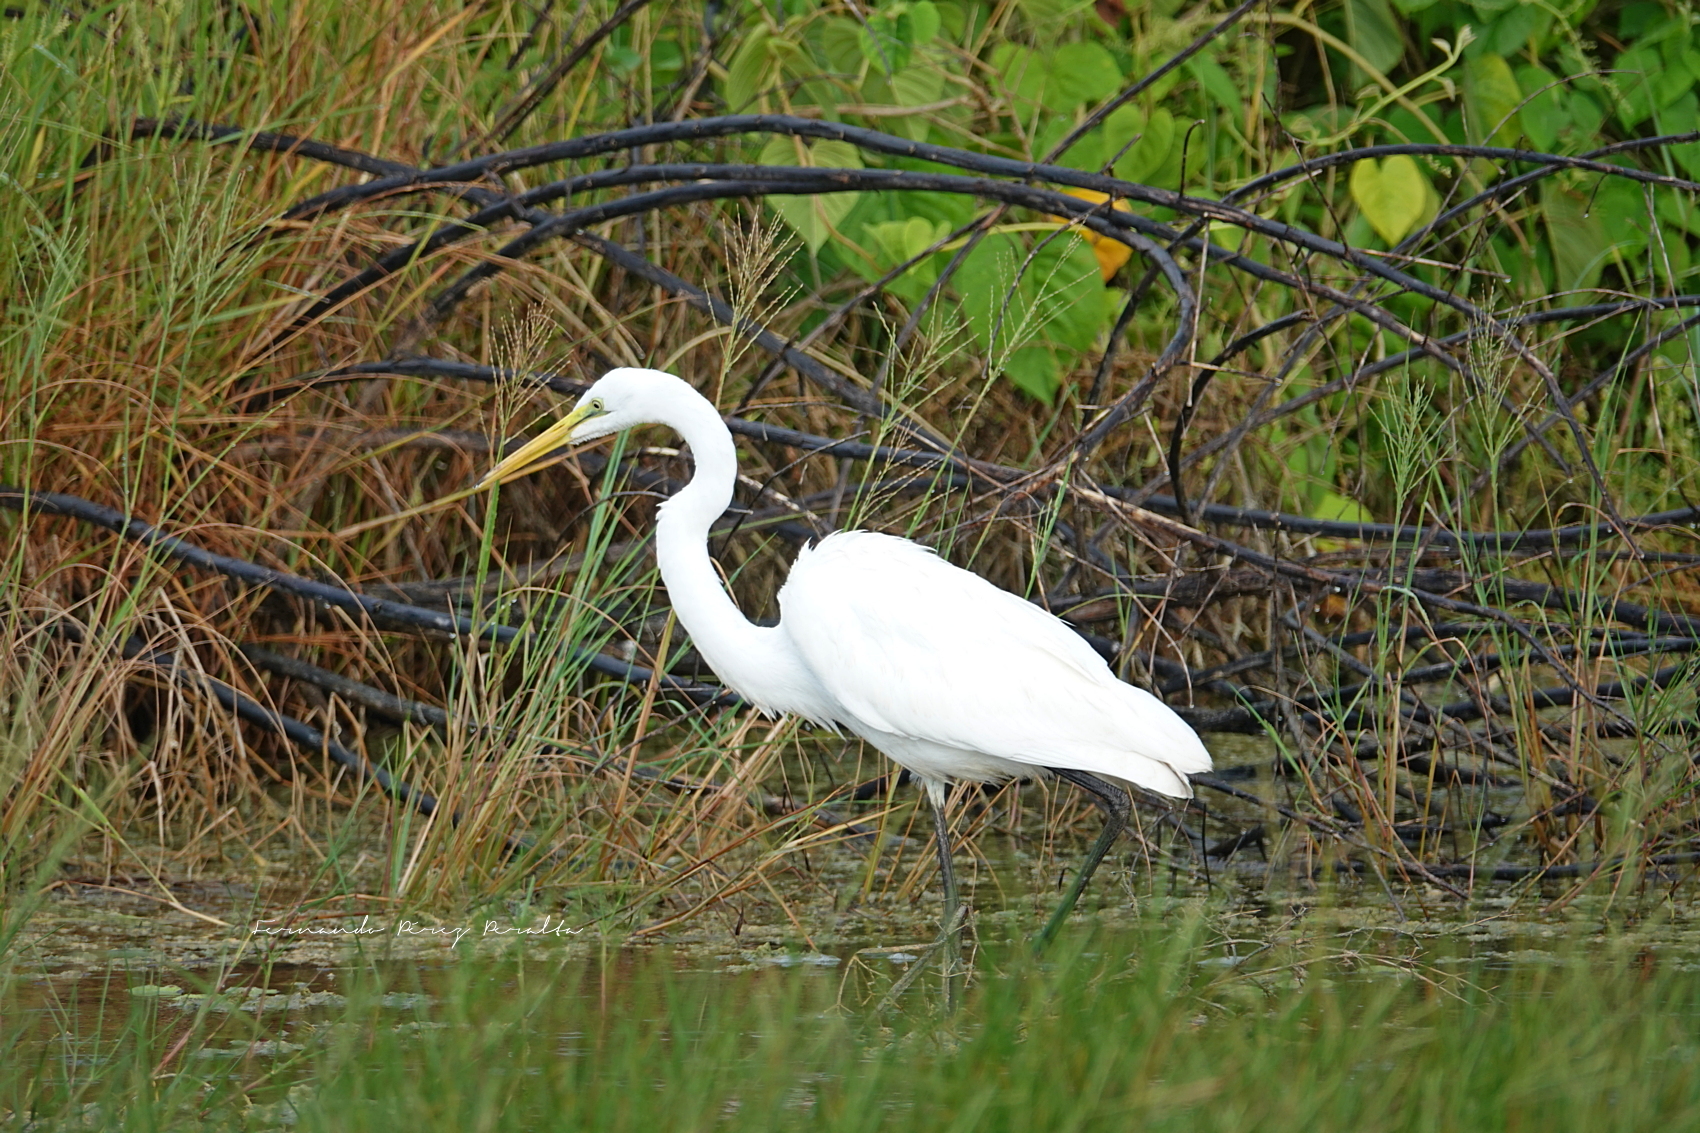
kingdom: Animalia
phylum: Chordata
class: Aves
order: Pelecaniformes
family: Ardeidae
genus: Ardea
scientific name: Ardea alba
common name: Great egret
